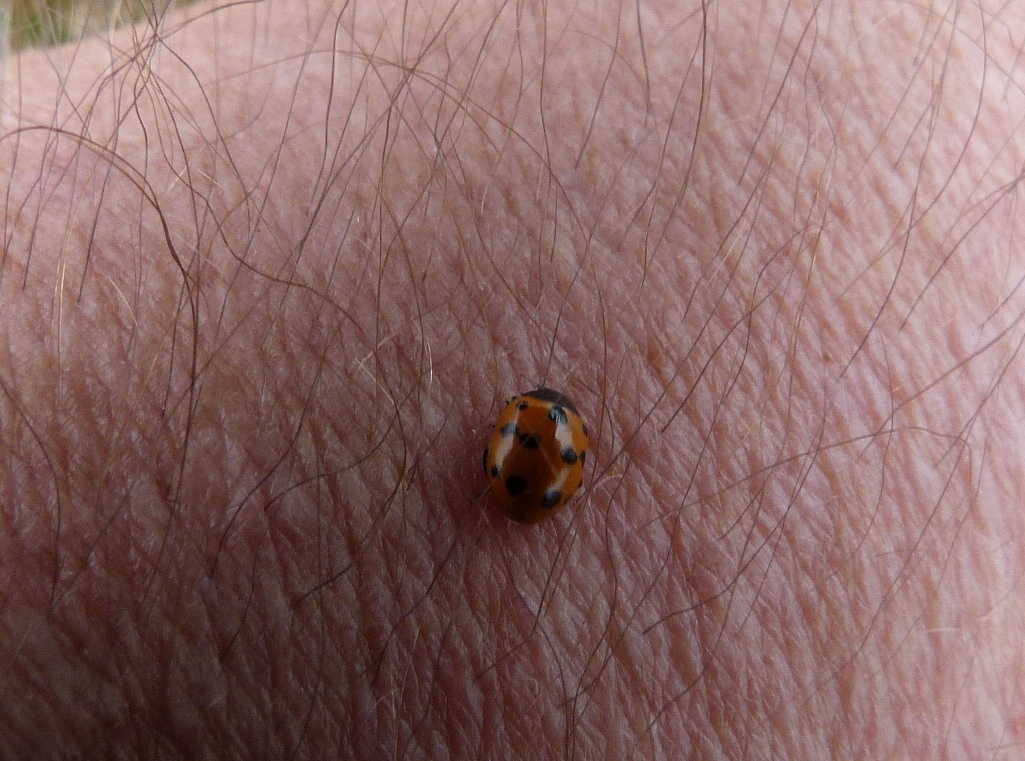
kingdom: Animalia
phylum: Arthropoda
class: Insecta
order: Coleoptera
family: Coccinellidae
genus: Coccinella
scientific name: Coccinella undecimpunctata
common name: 11-spot ladybird
